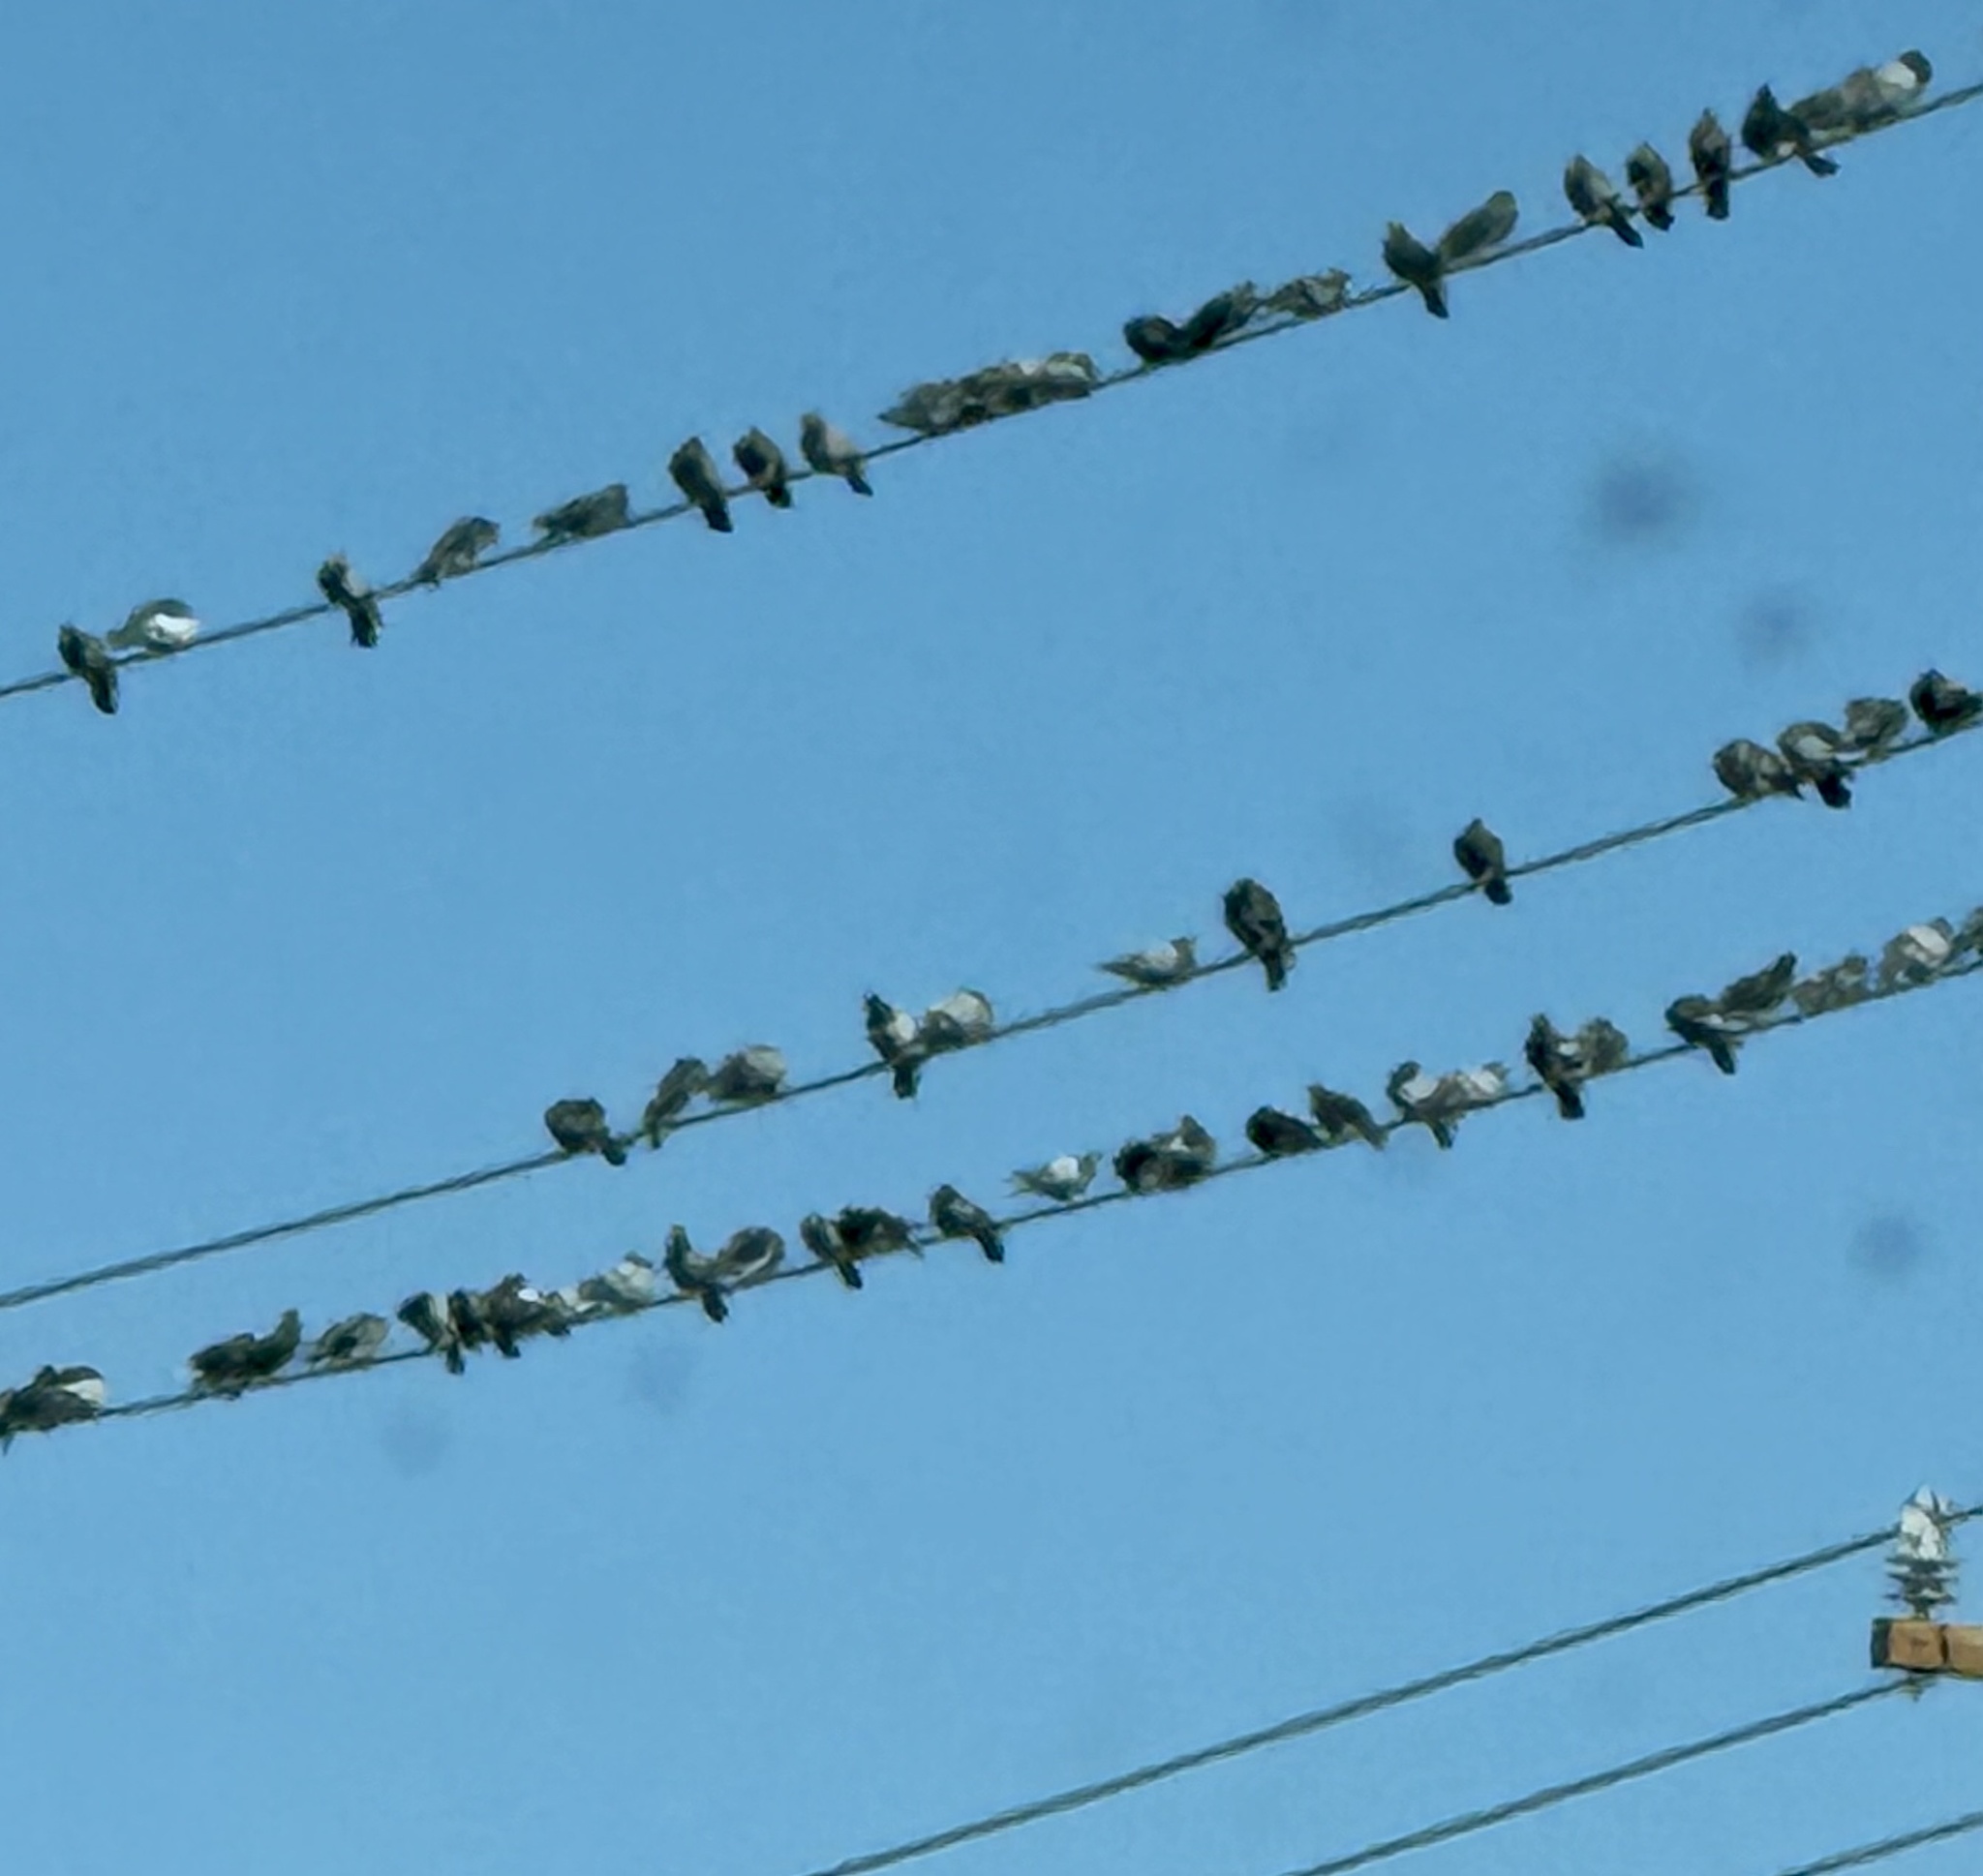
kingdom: Animalia
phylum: Chordata
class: Aves
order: Columbiformes
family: Columbidae
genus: Columba
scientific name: Columba livia
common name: Rock pigeon
